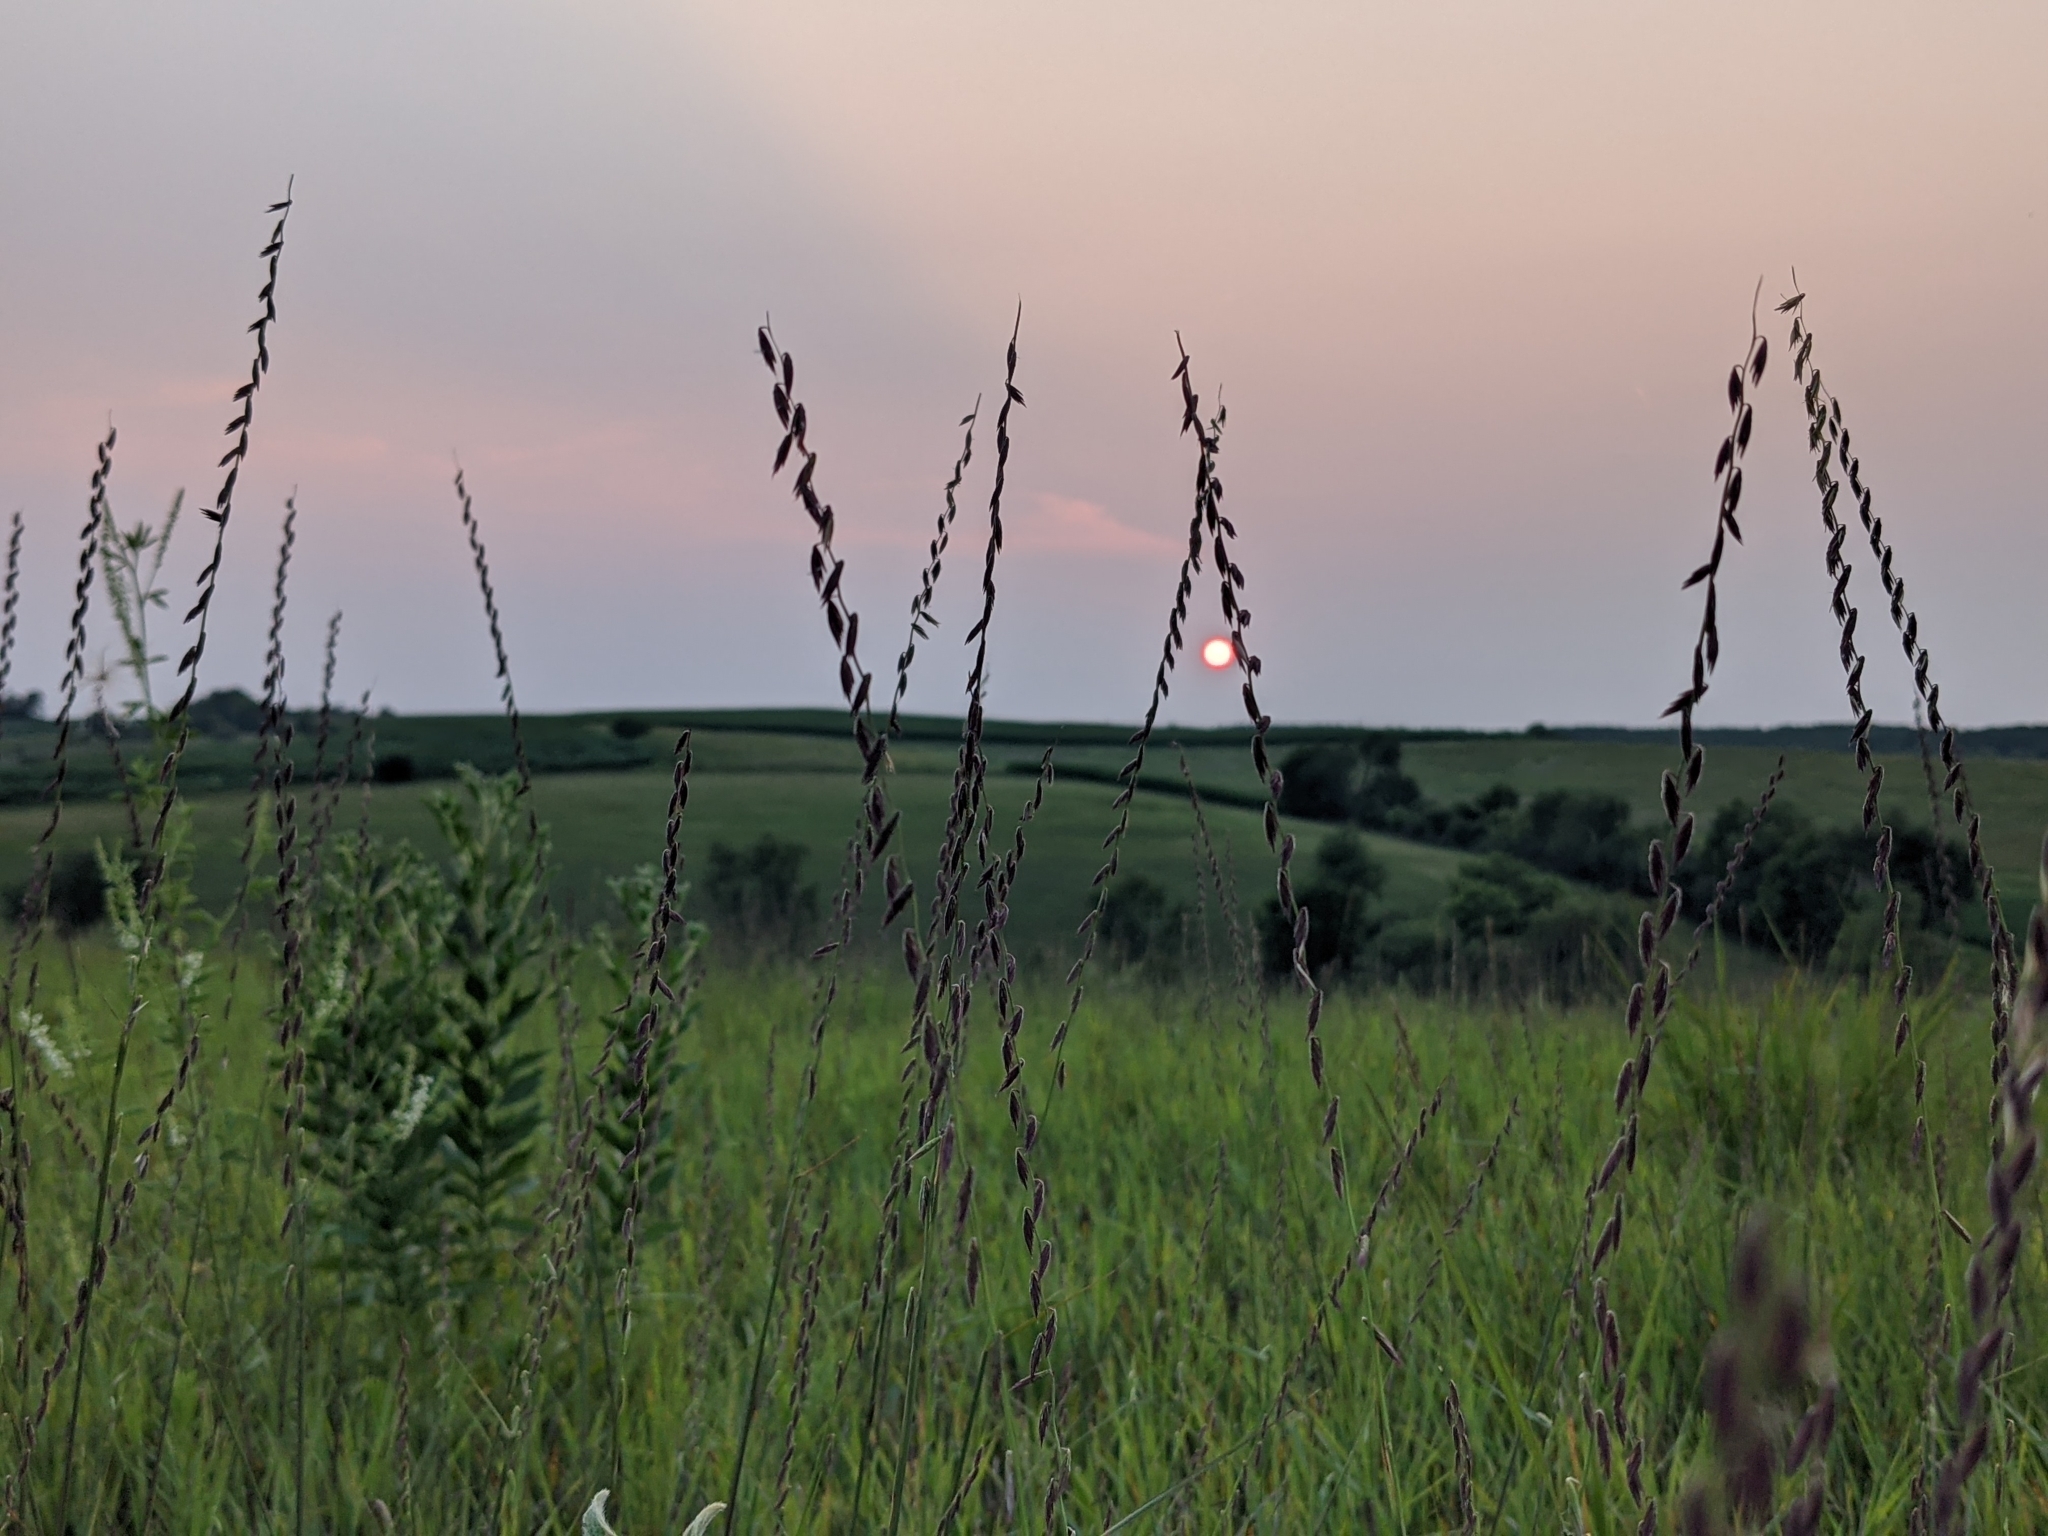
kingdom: Plantae
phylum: Tracheophyta
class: Liliopsida
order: Poales
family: Poaceae
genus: Bouteloua
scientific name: Bouteloua curtipendula
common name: Side-oats grama
